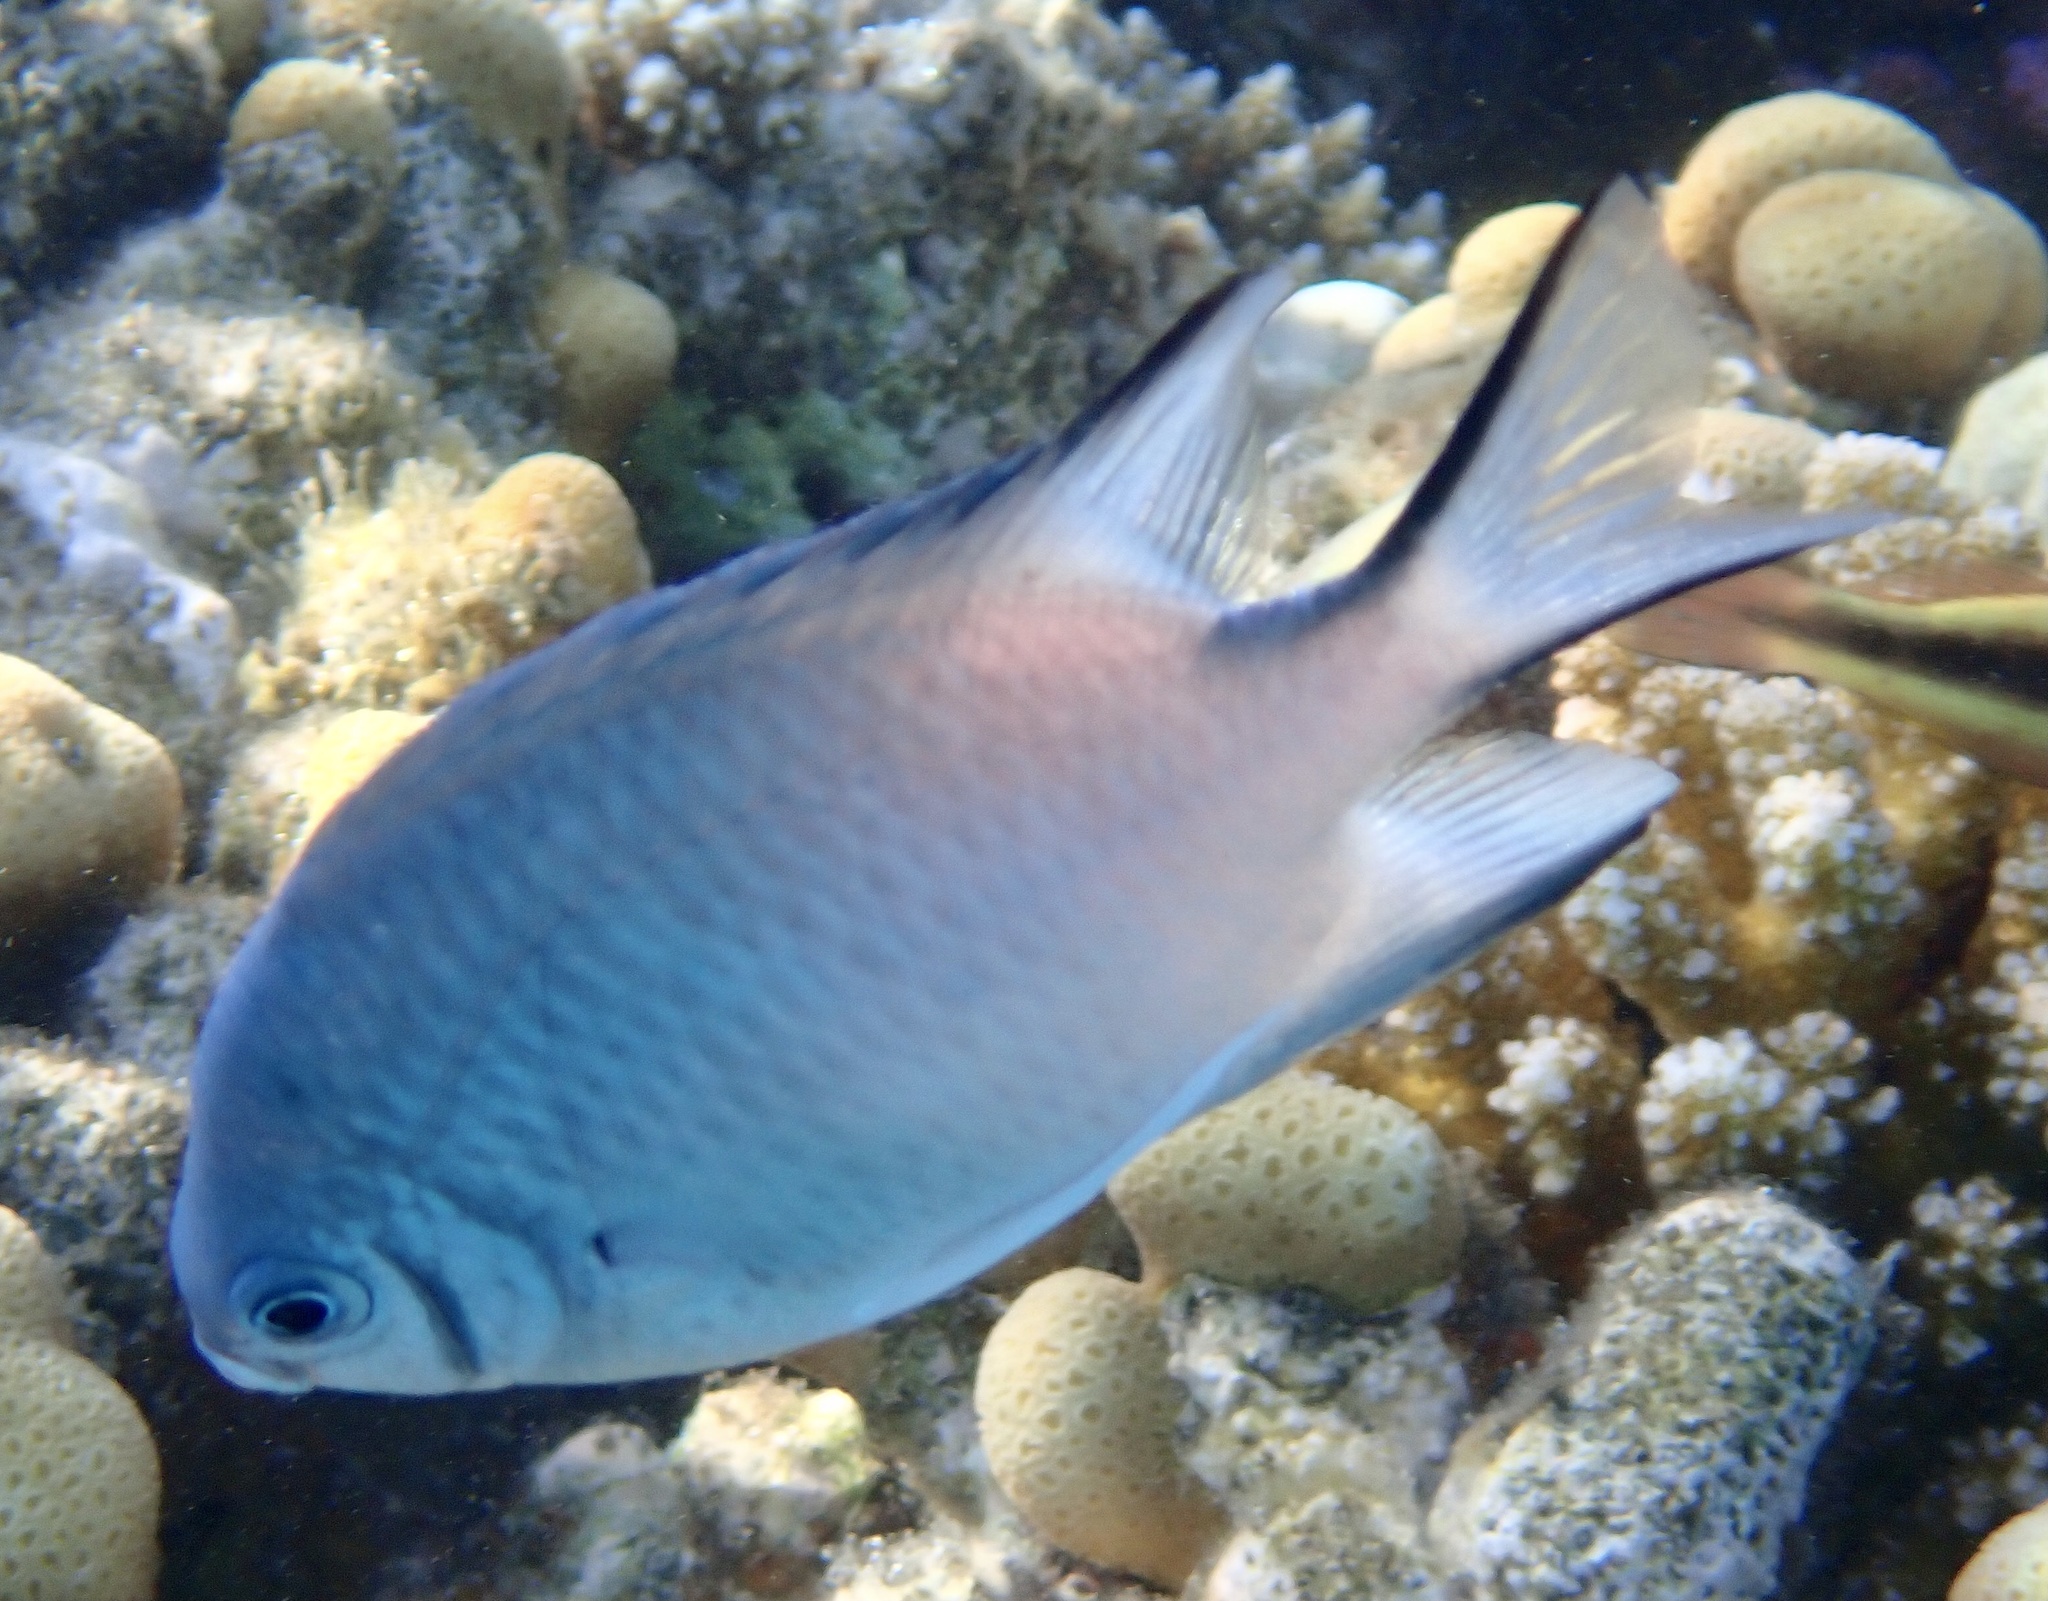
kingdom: Animalia
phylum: Chordata
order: Perciformes
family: Pomacentridae
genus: Amblyglyphidodon
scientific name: Amblyglyphidodon indicus
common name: Maldives damselfish
